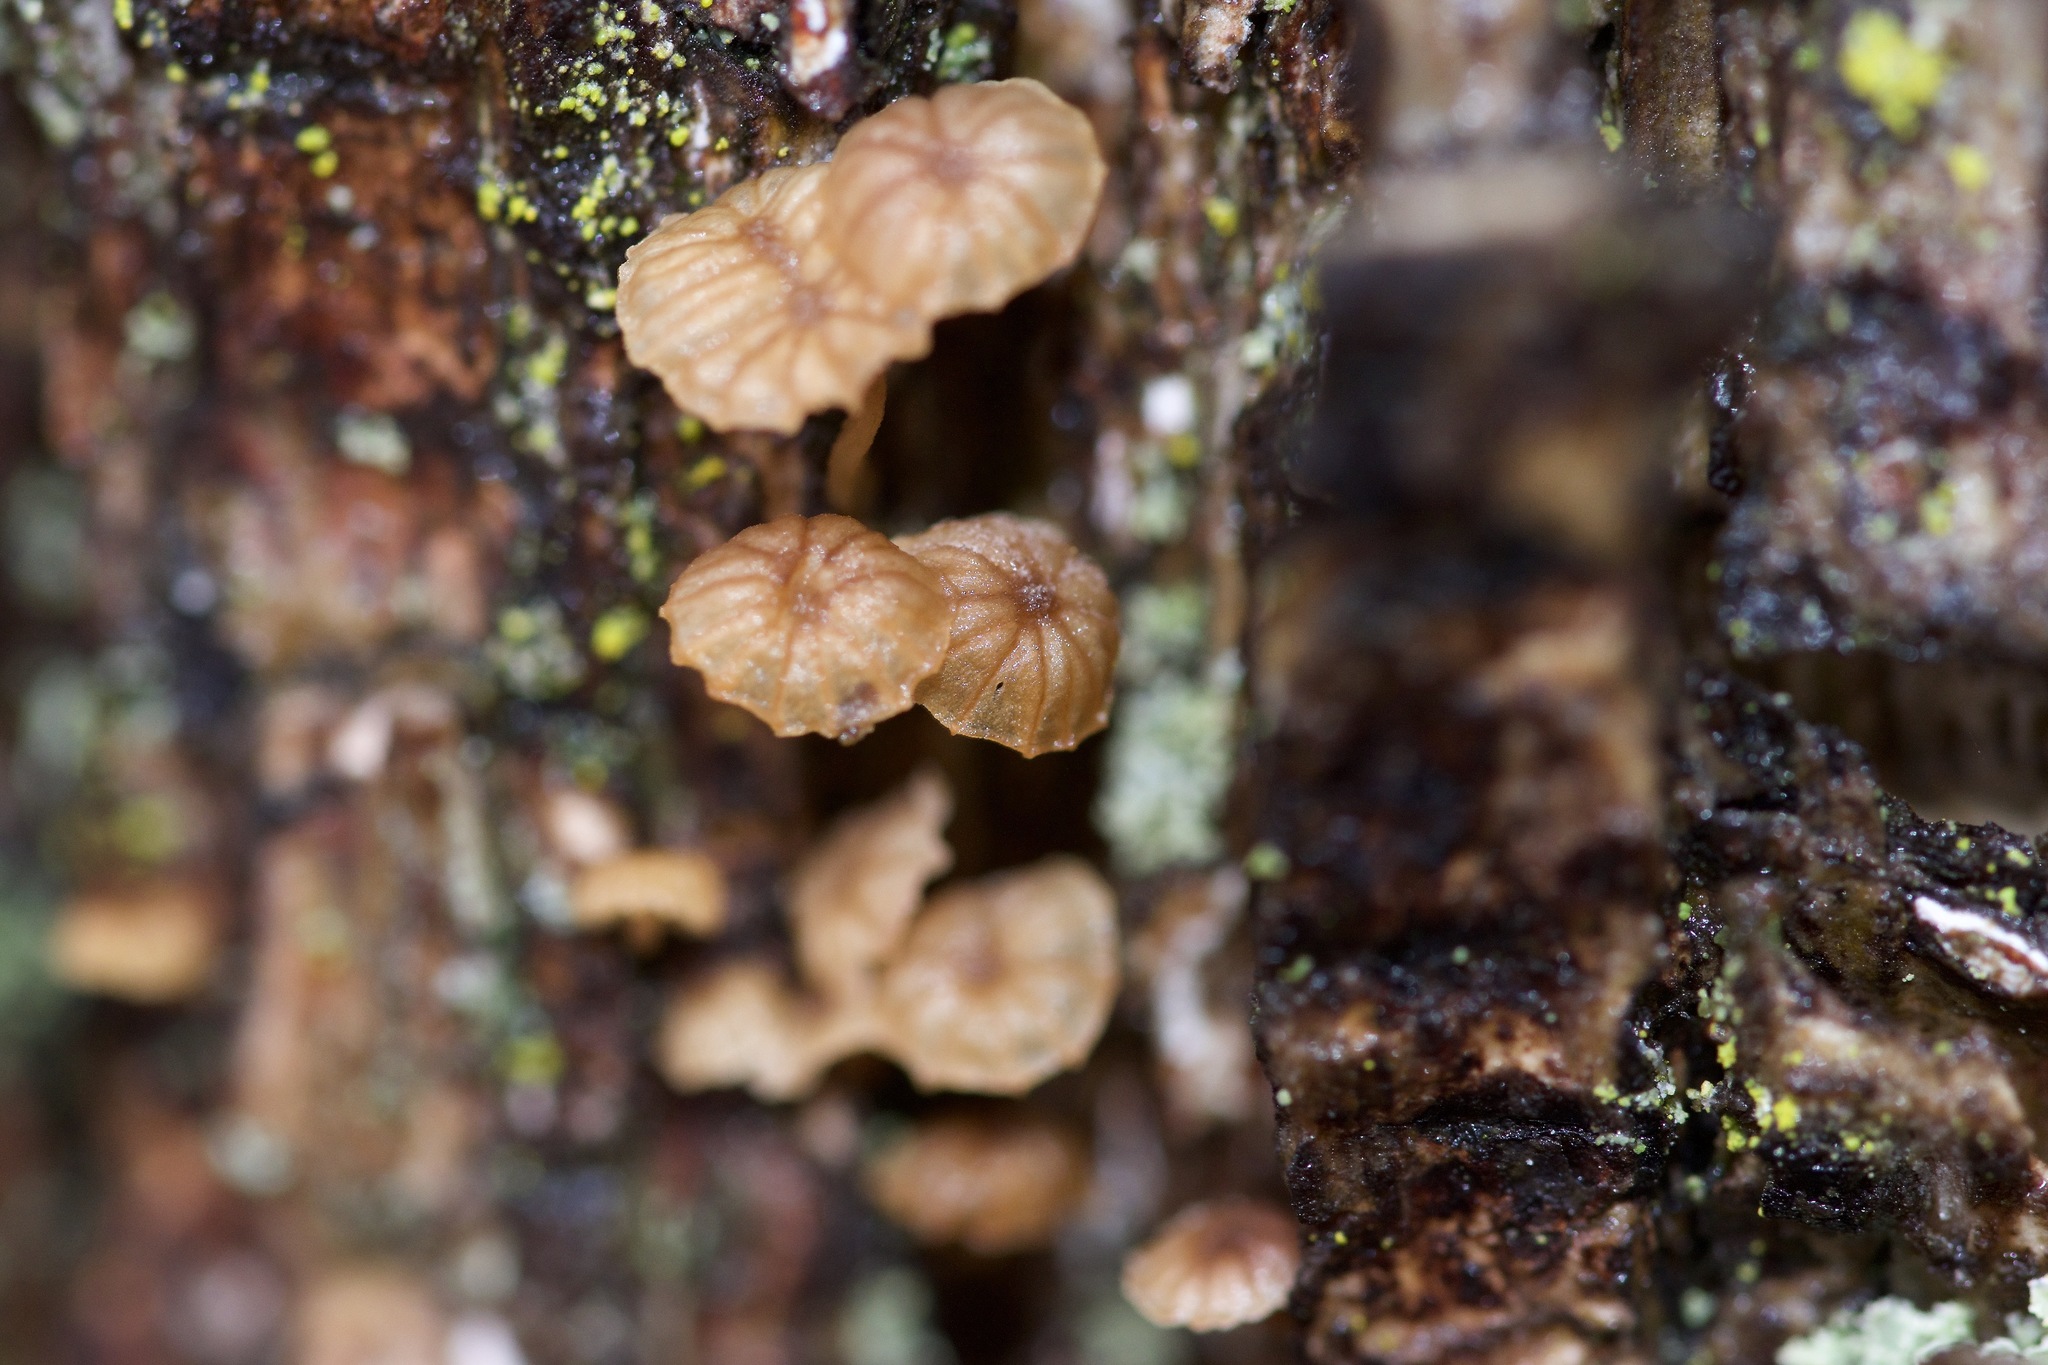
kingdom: Fungi
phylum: Basidiomycota
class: Agaricomycetes
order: Agaricales
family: Mycenaceae
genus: Mycena
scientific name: Mycena corticola
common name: Bark mycena
